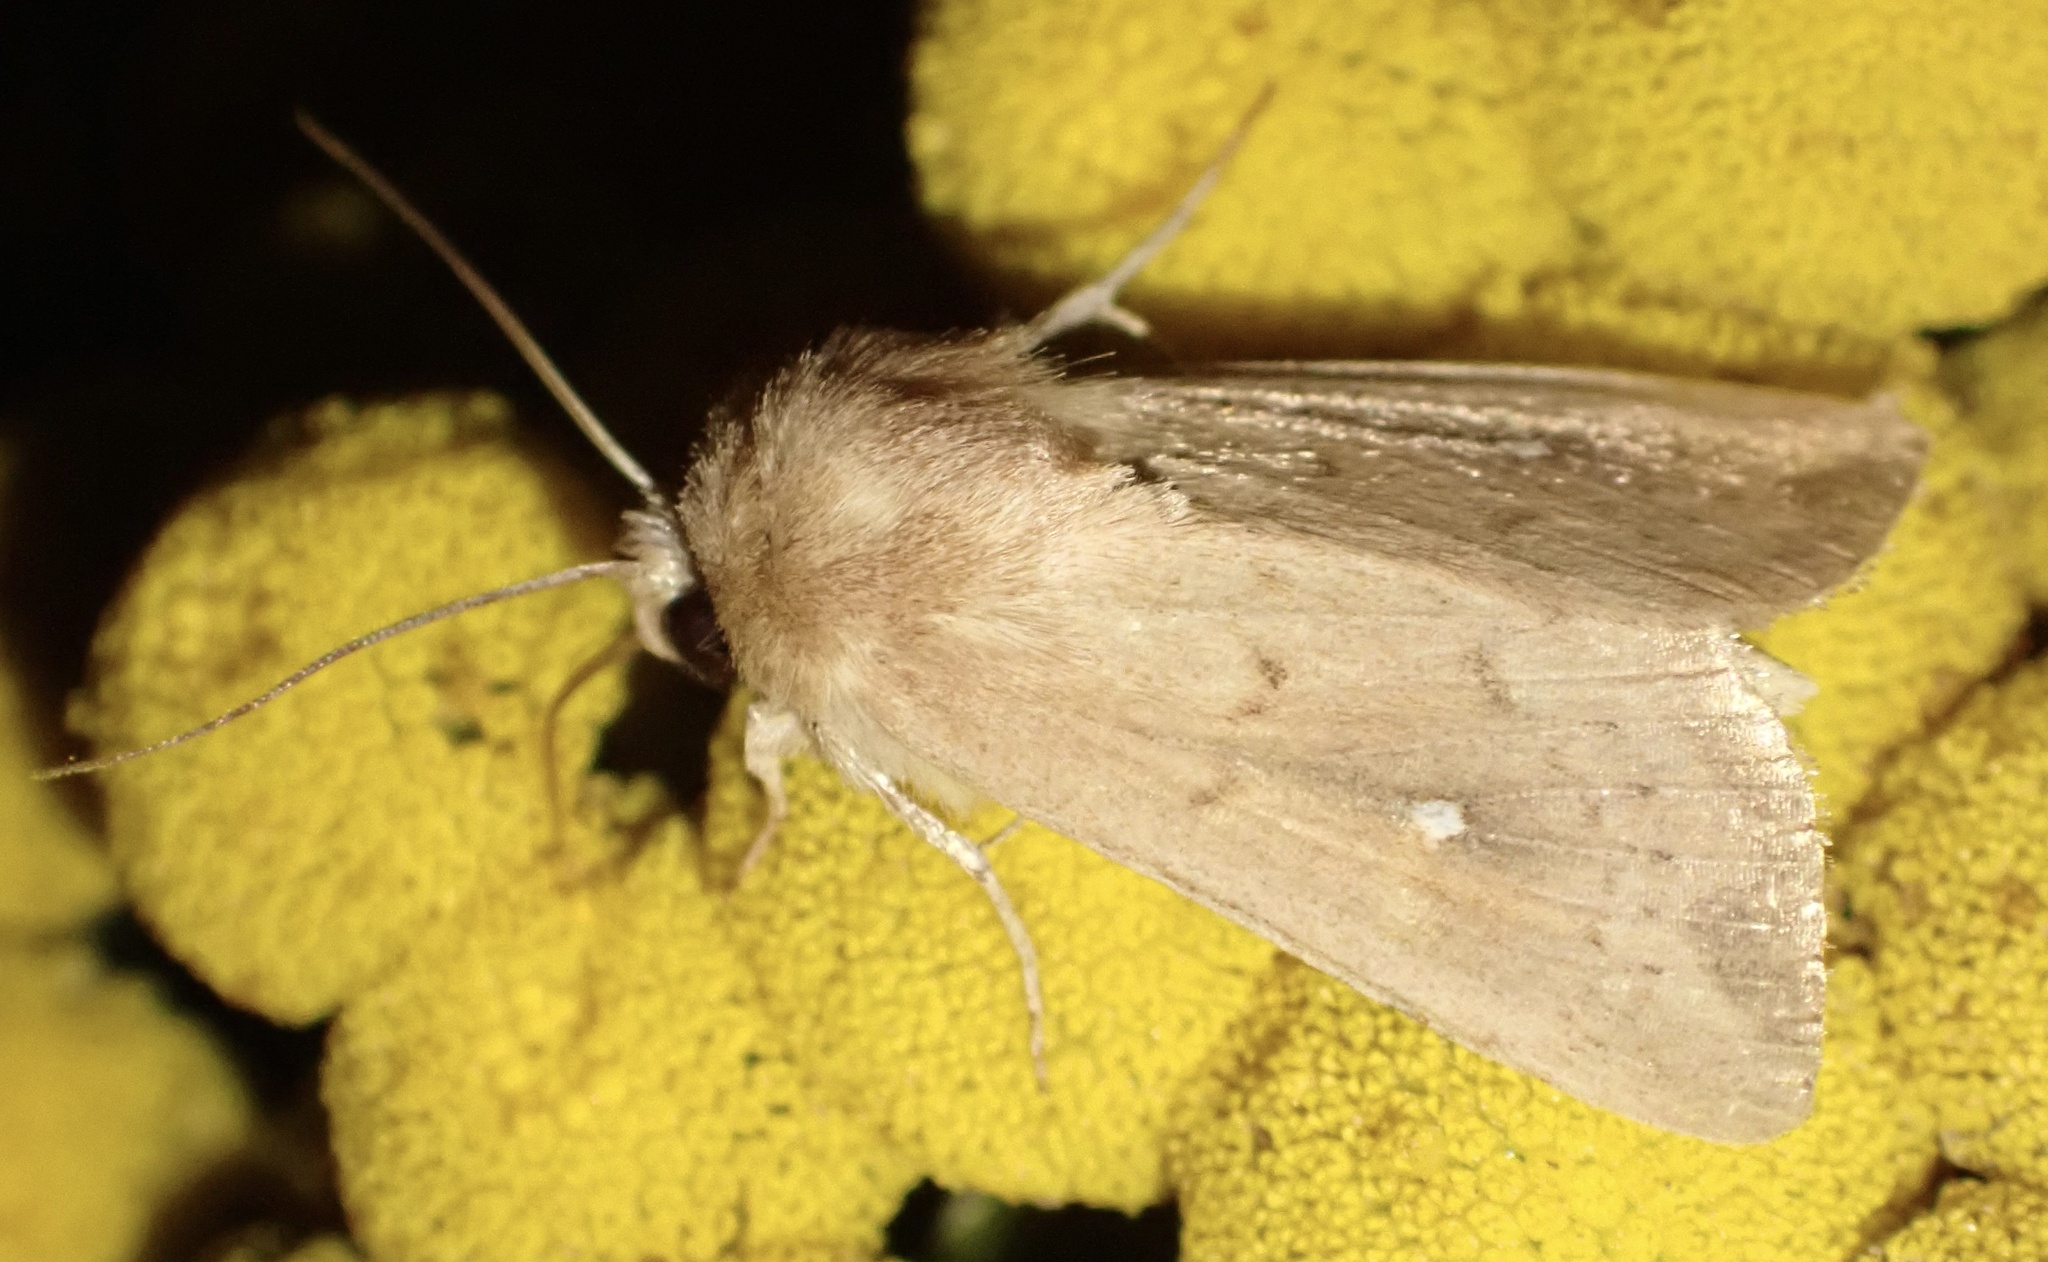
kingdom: Animalia
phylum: Arthropoda
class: Insecta
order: Lepidoptera
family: Noctuidae
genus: Mythimna
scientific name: Mythimna ferrago
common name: Clay
